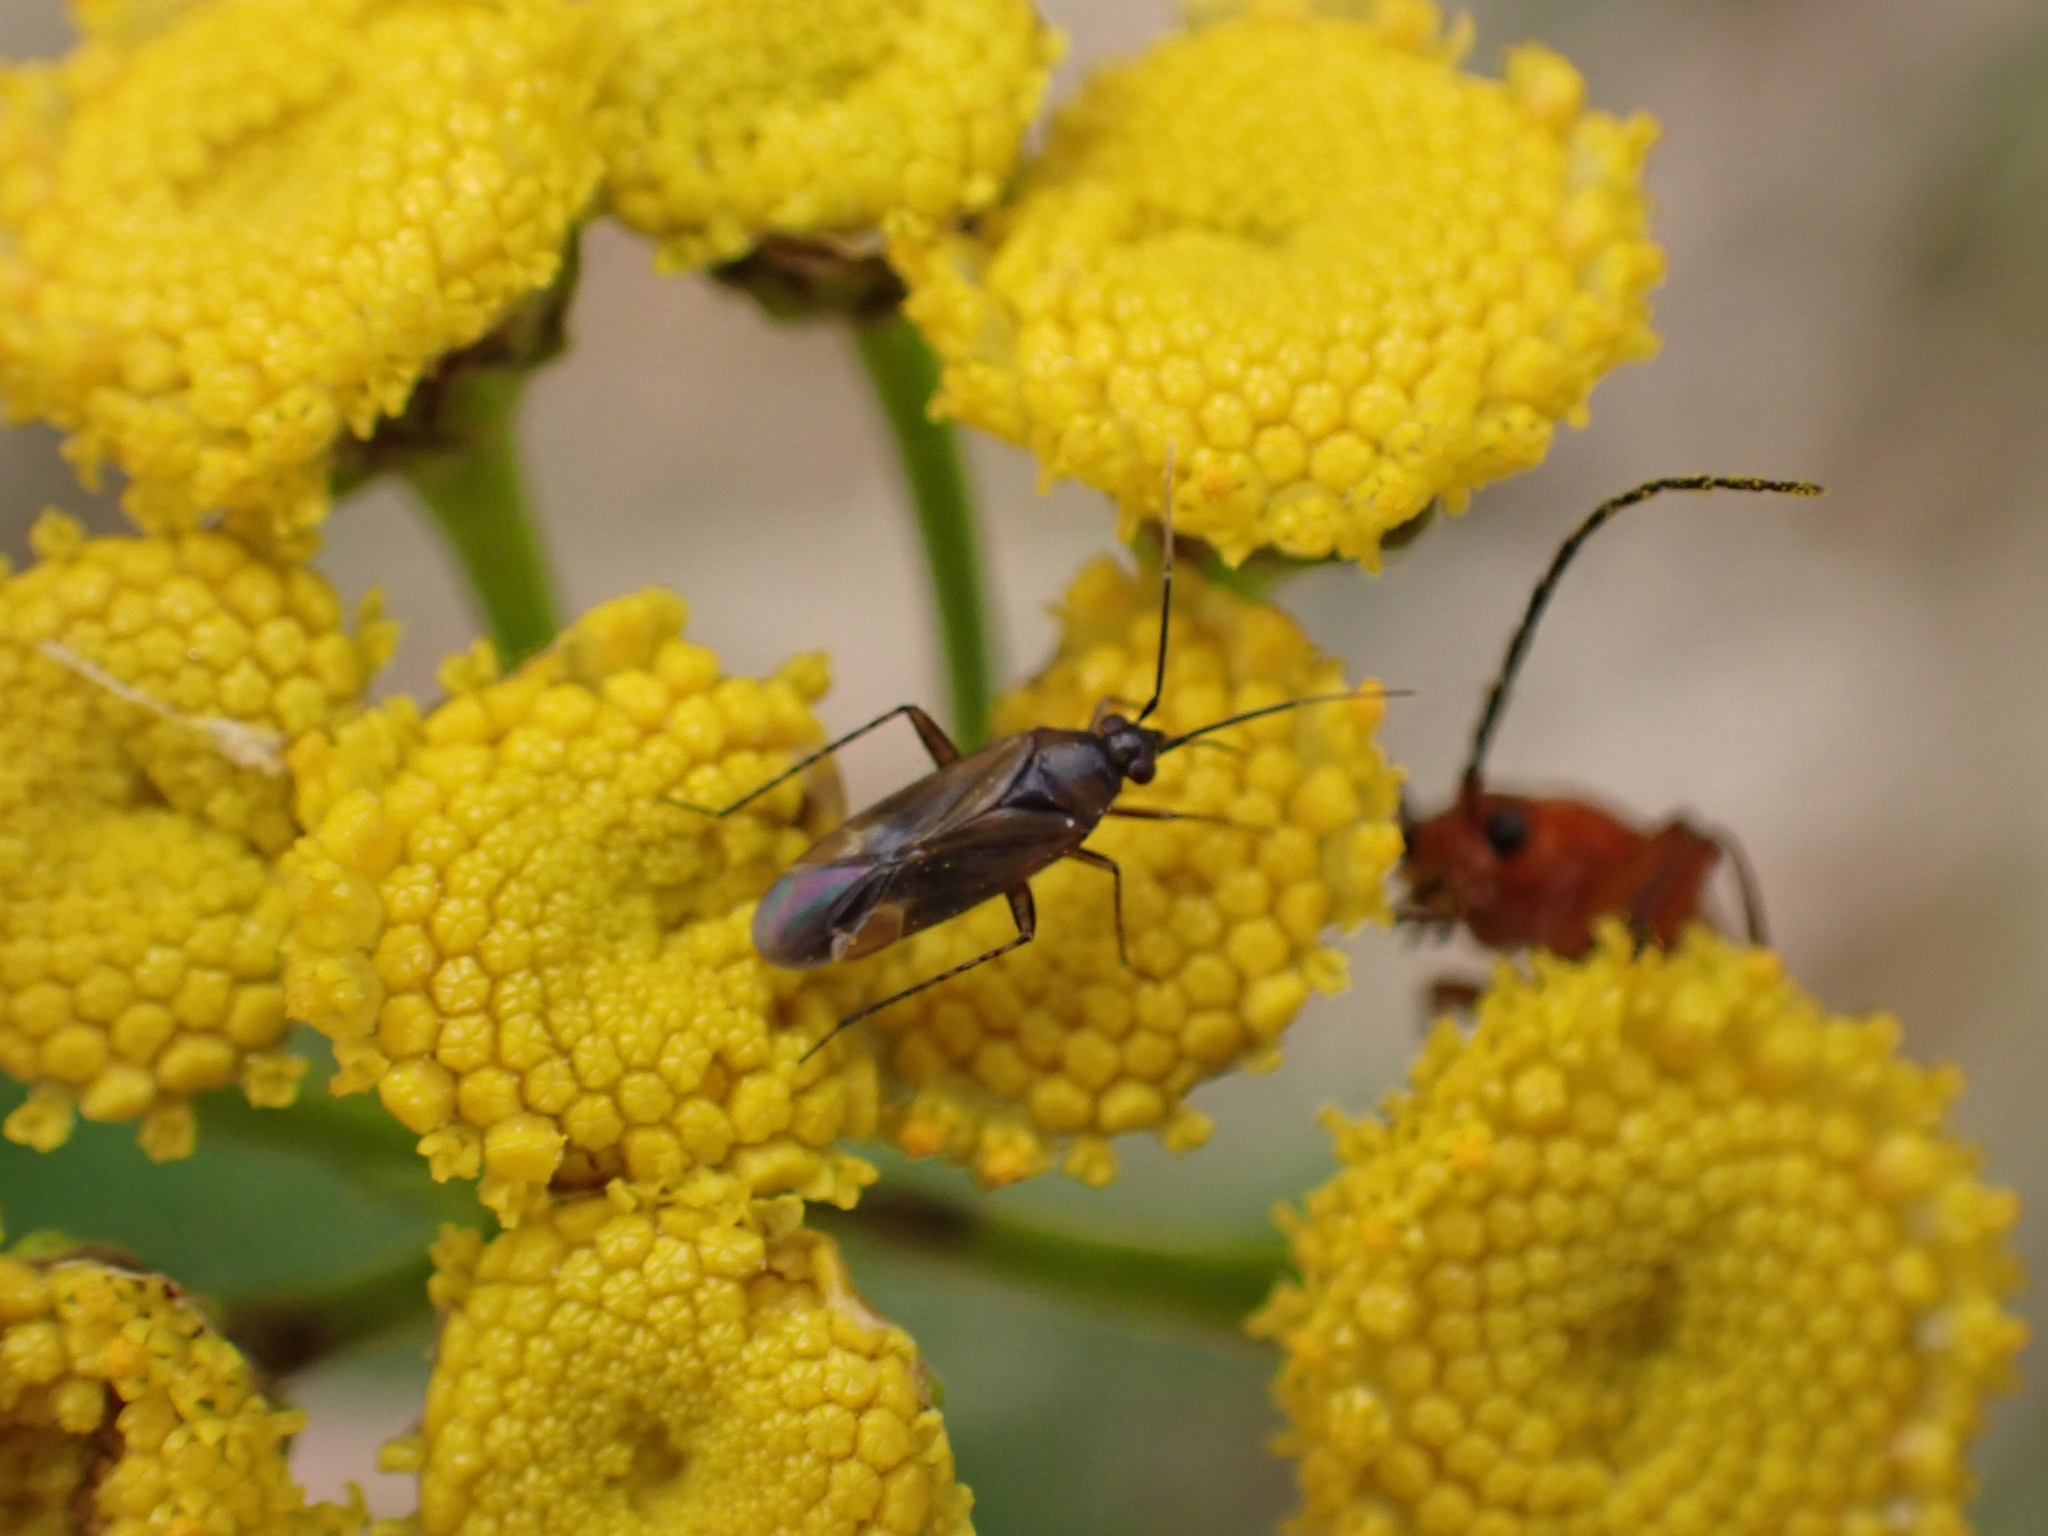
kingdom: Animalia
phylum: Arthropoda
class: Insecta
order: Hemiptera
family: Miridae
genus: Plagiognathus
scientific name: Plagiognathus arbustorum
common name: Plant bug
